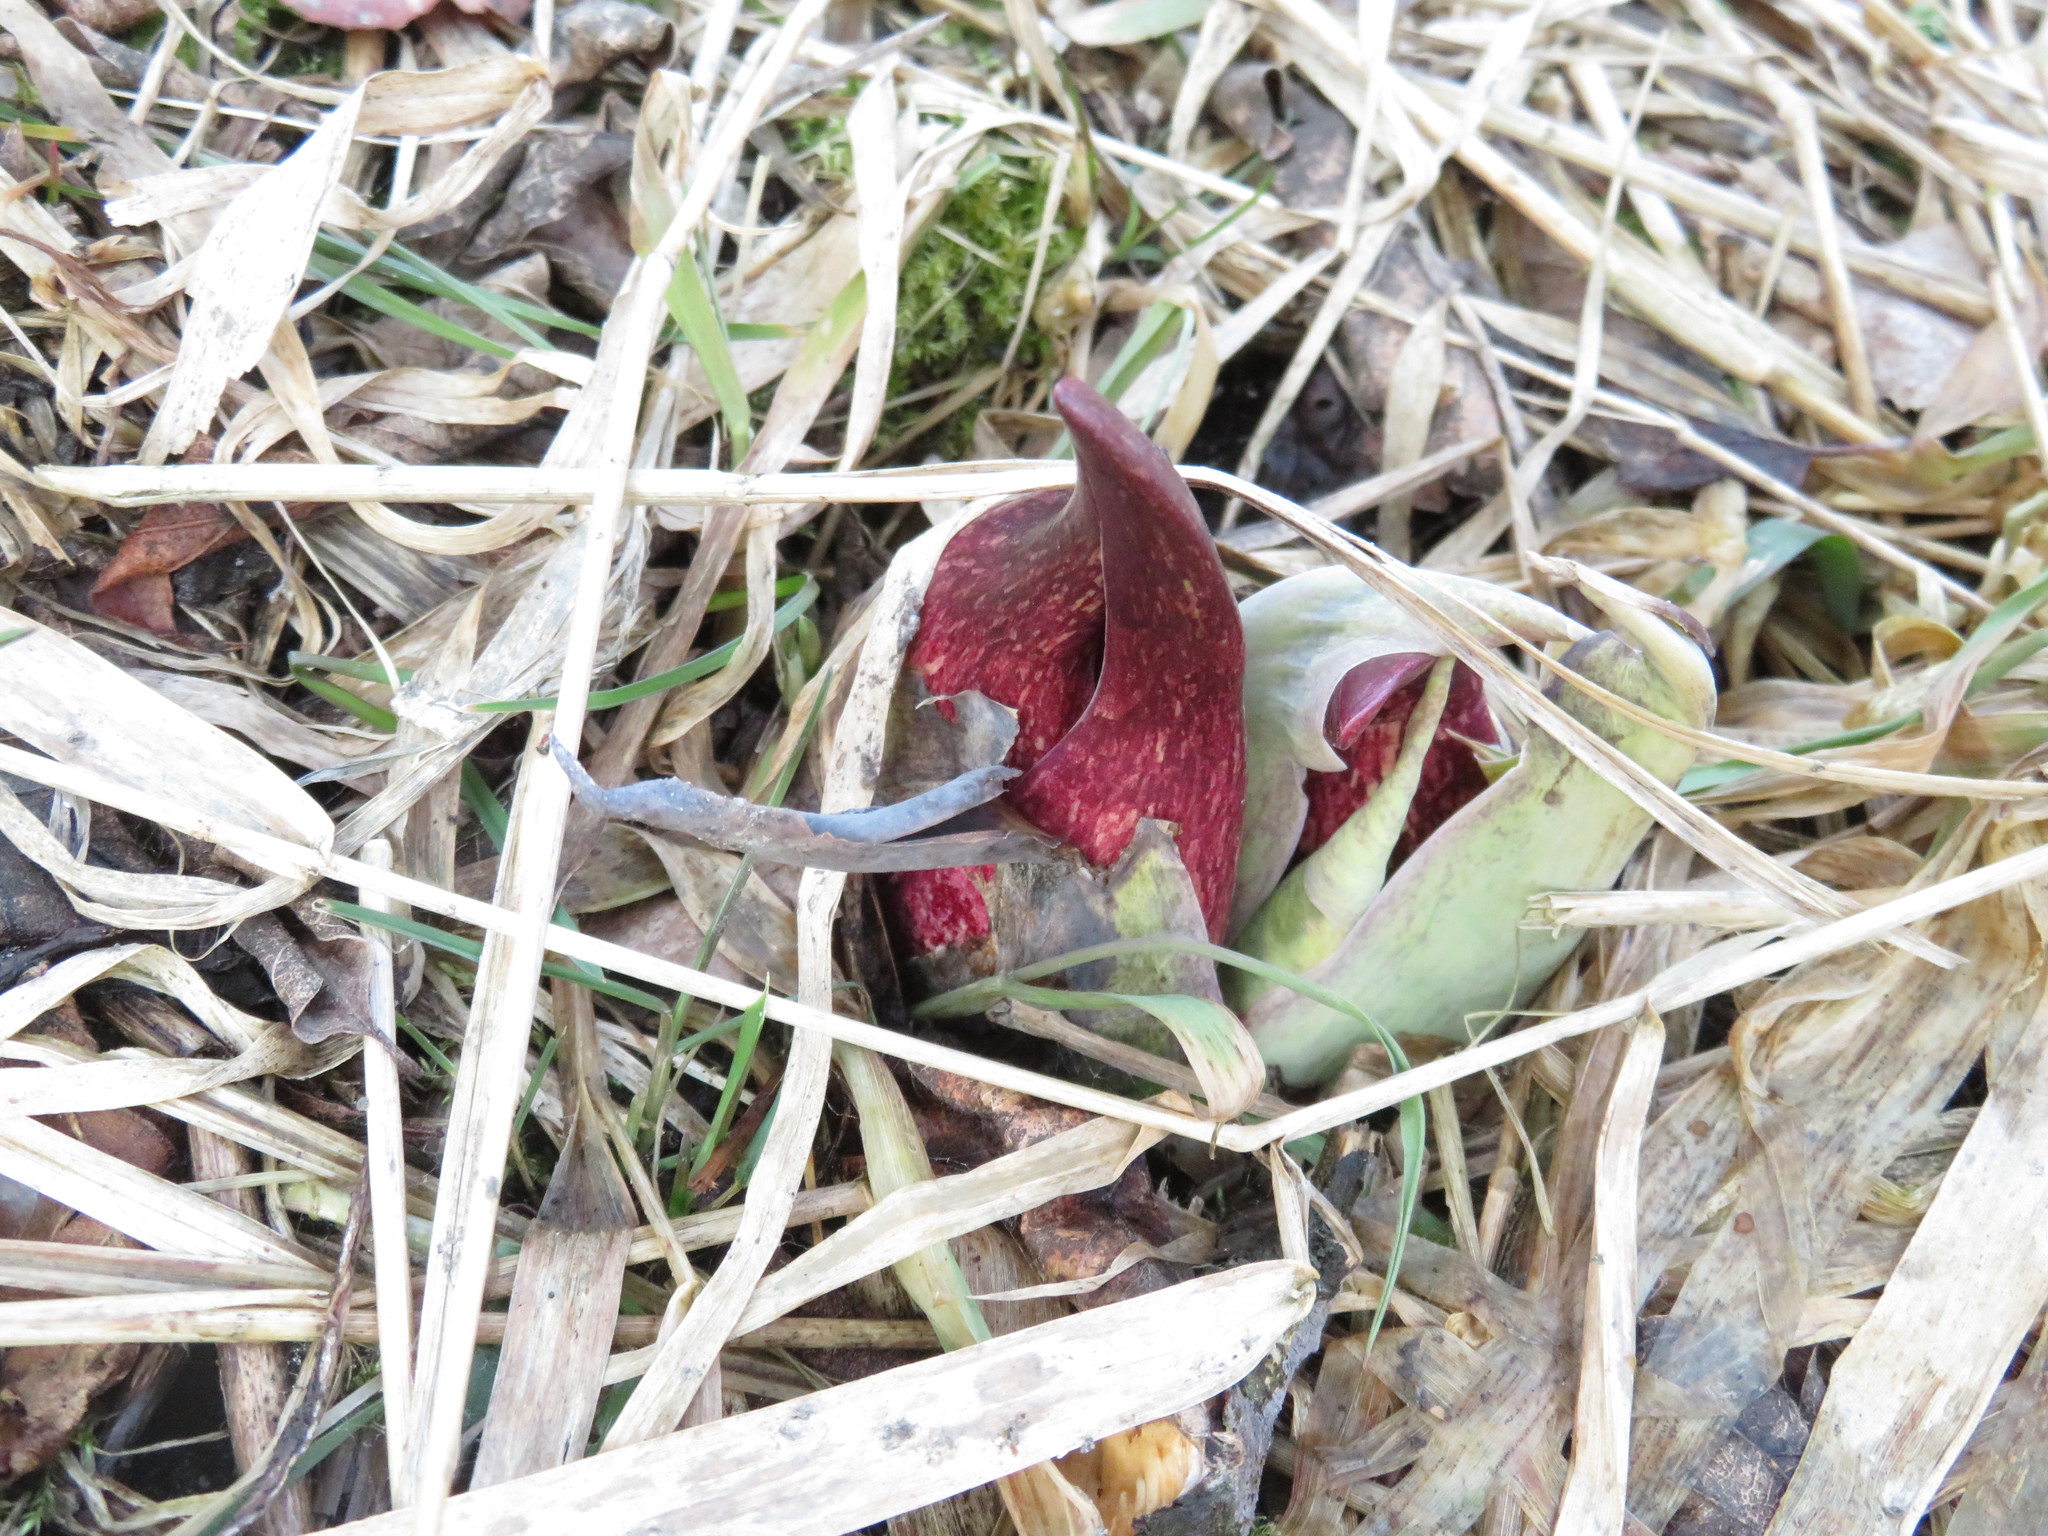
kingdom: Plantae
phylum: Tracheophyta
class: Liliopsida
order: Alismatales
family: Araceae
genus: Symplocarpus
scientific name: Symplocarpus foetidus
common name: Eastern skunk cabbage
